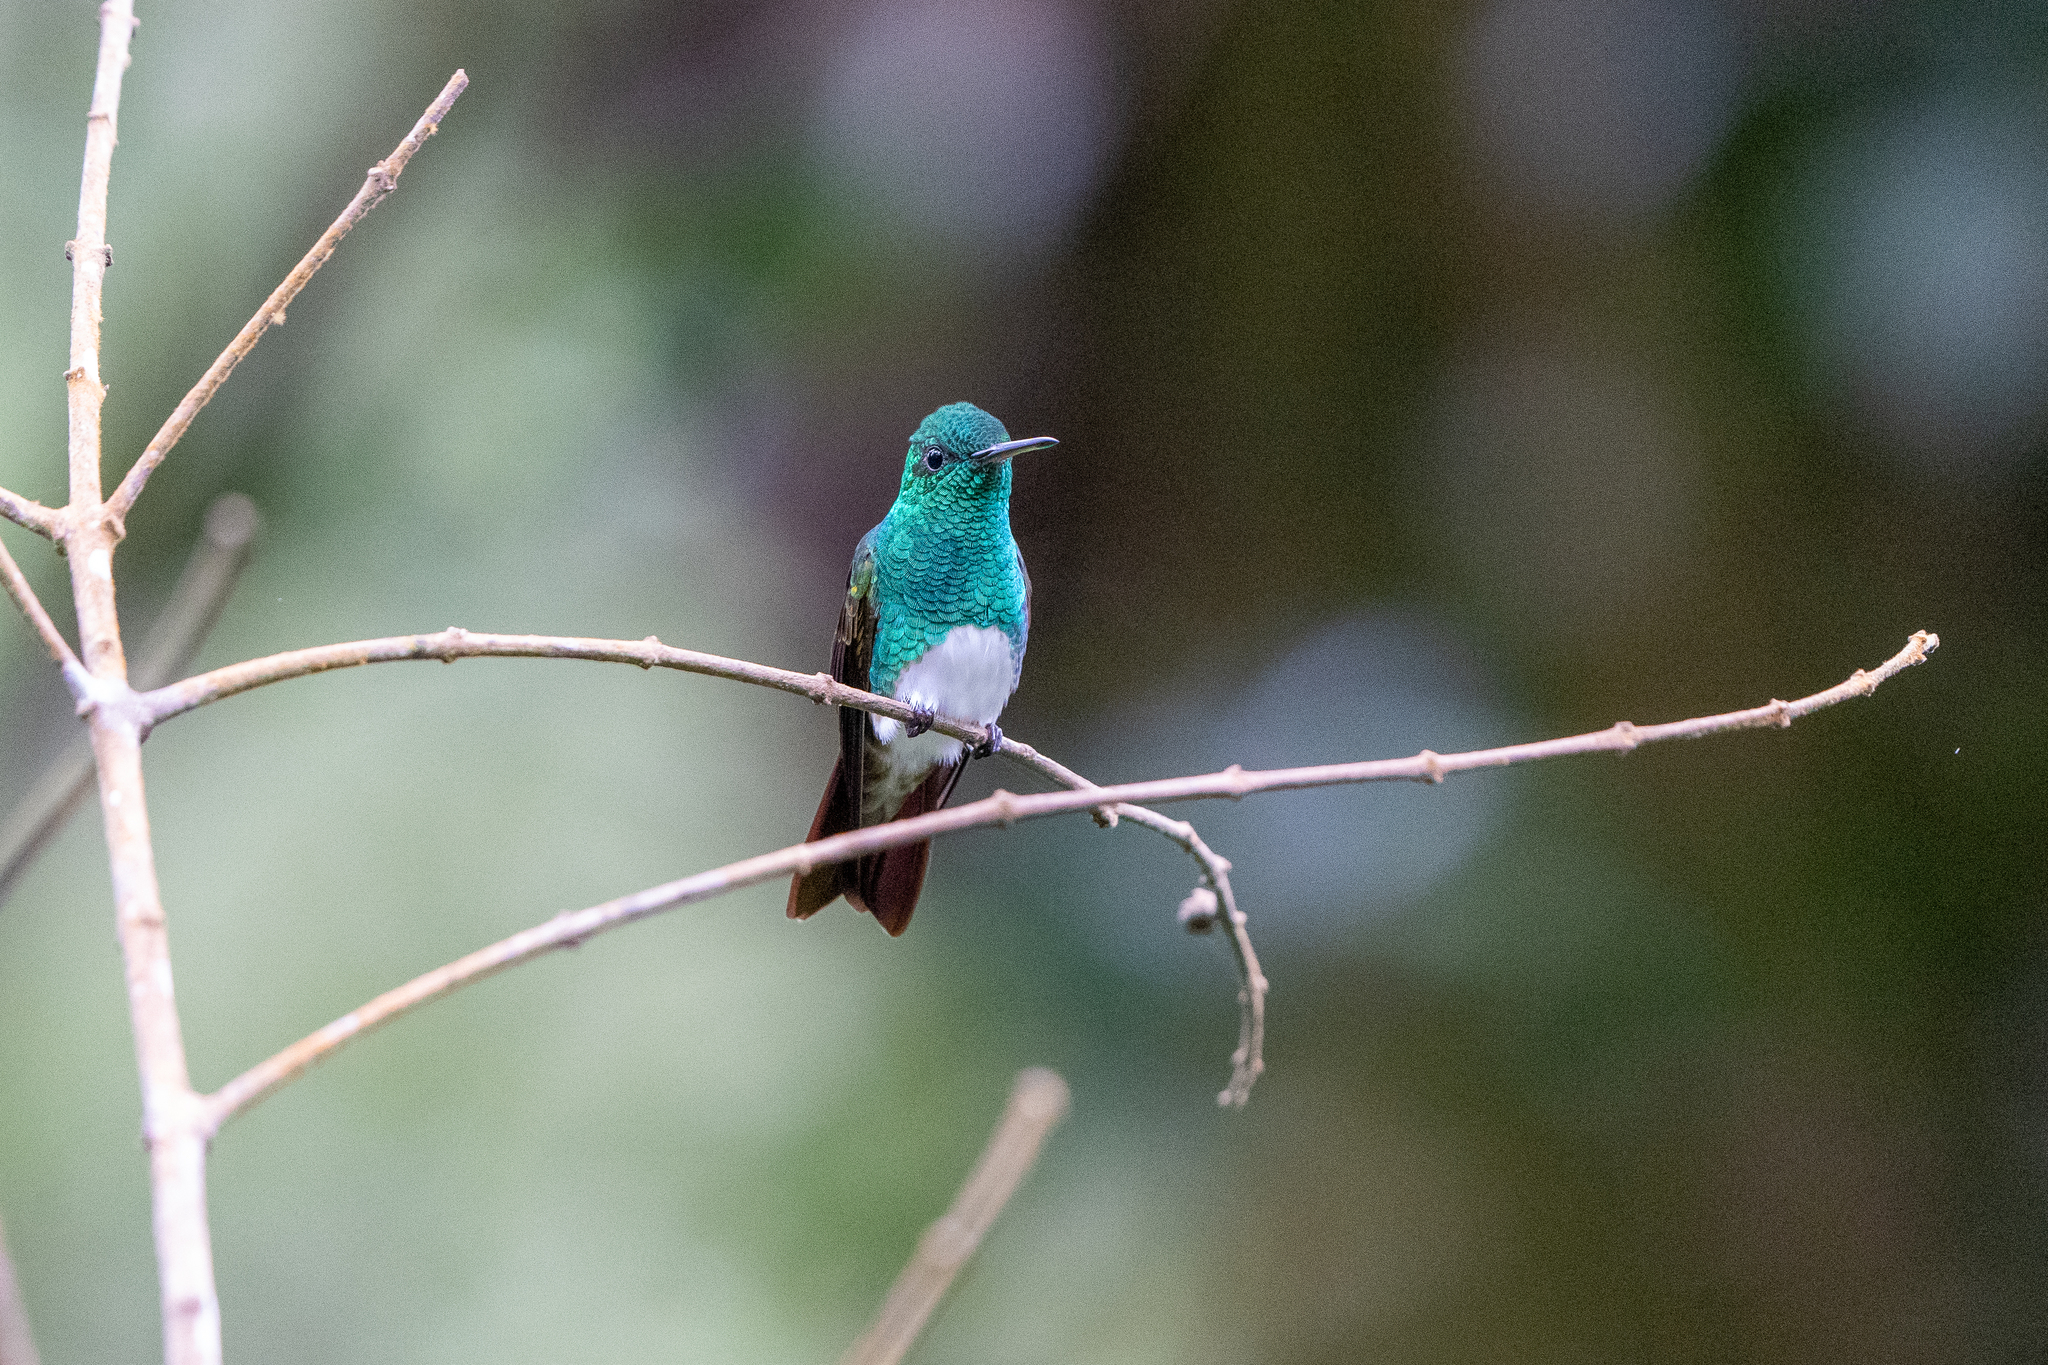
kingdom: Animalia
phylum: Chordata
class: Aves
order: Apodiformes
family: Trochilidae
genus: Saucerottia
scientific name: Saucerottia edward
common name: Snowy-bellied hummingbird
